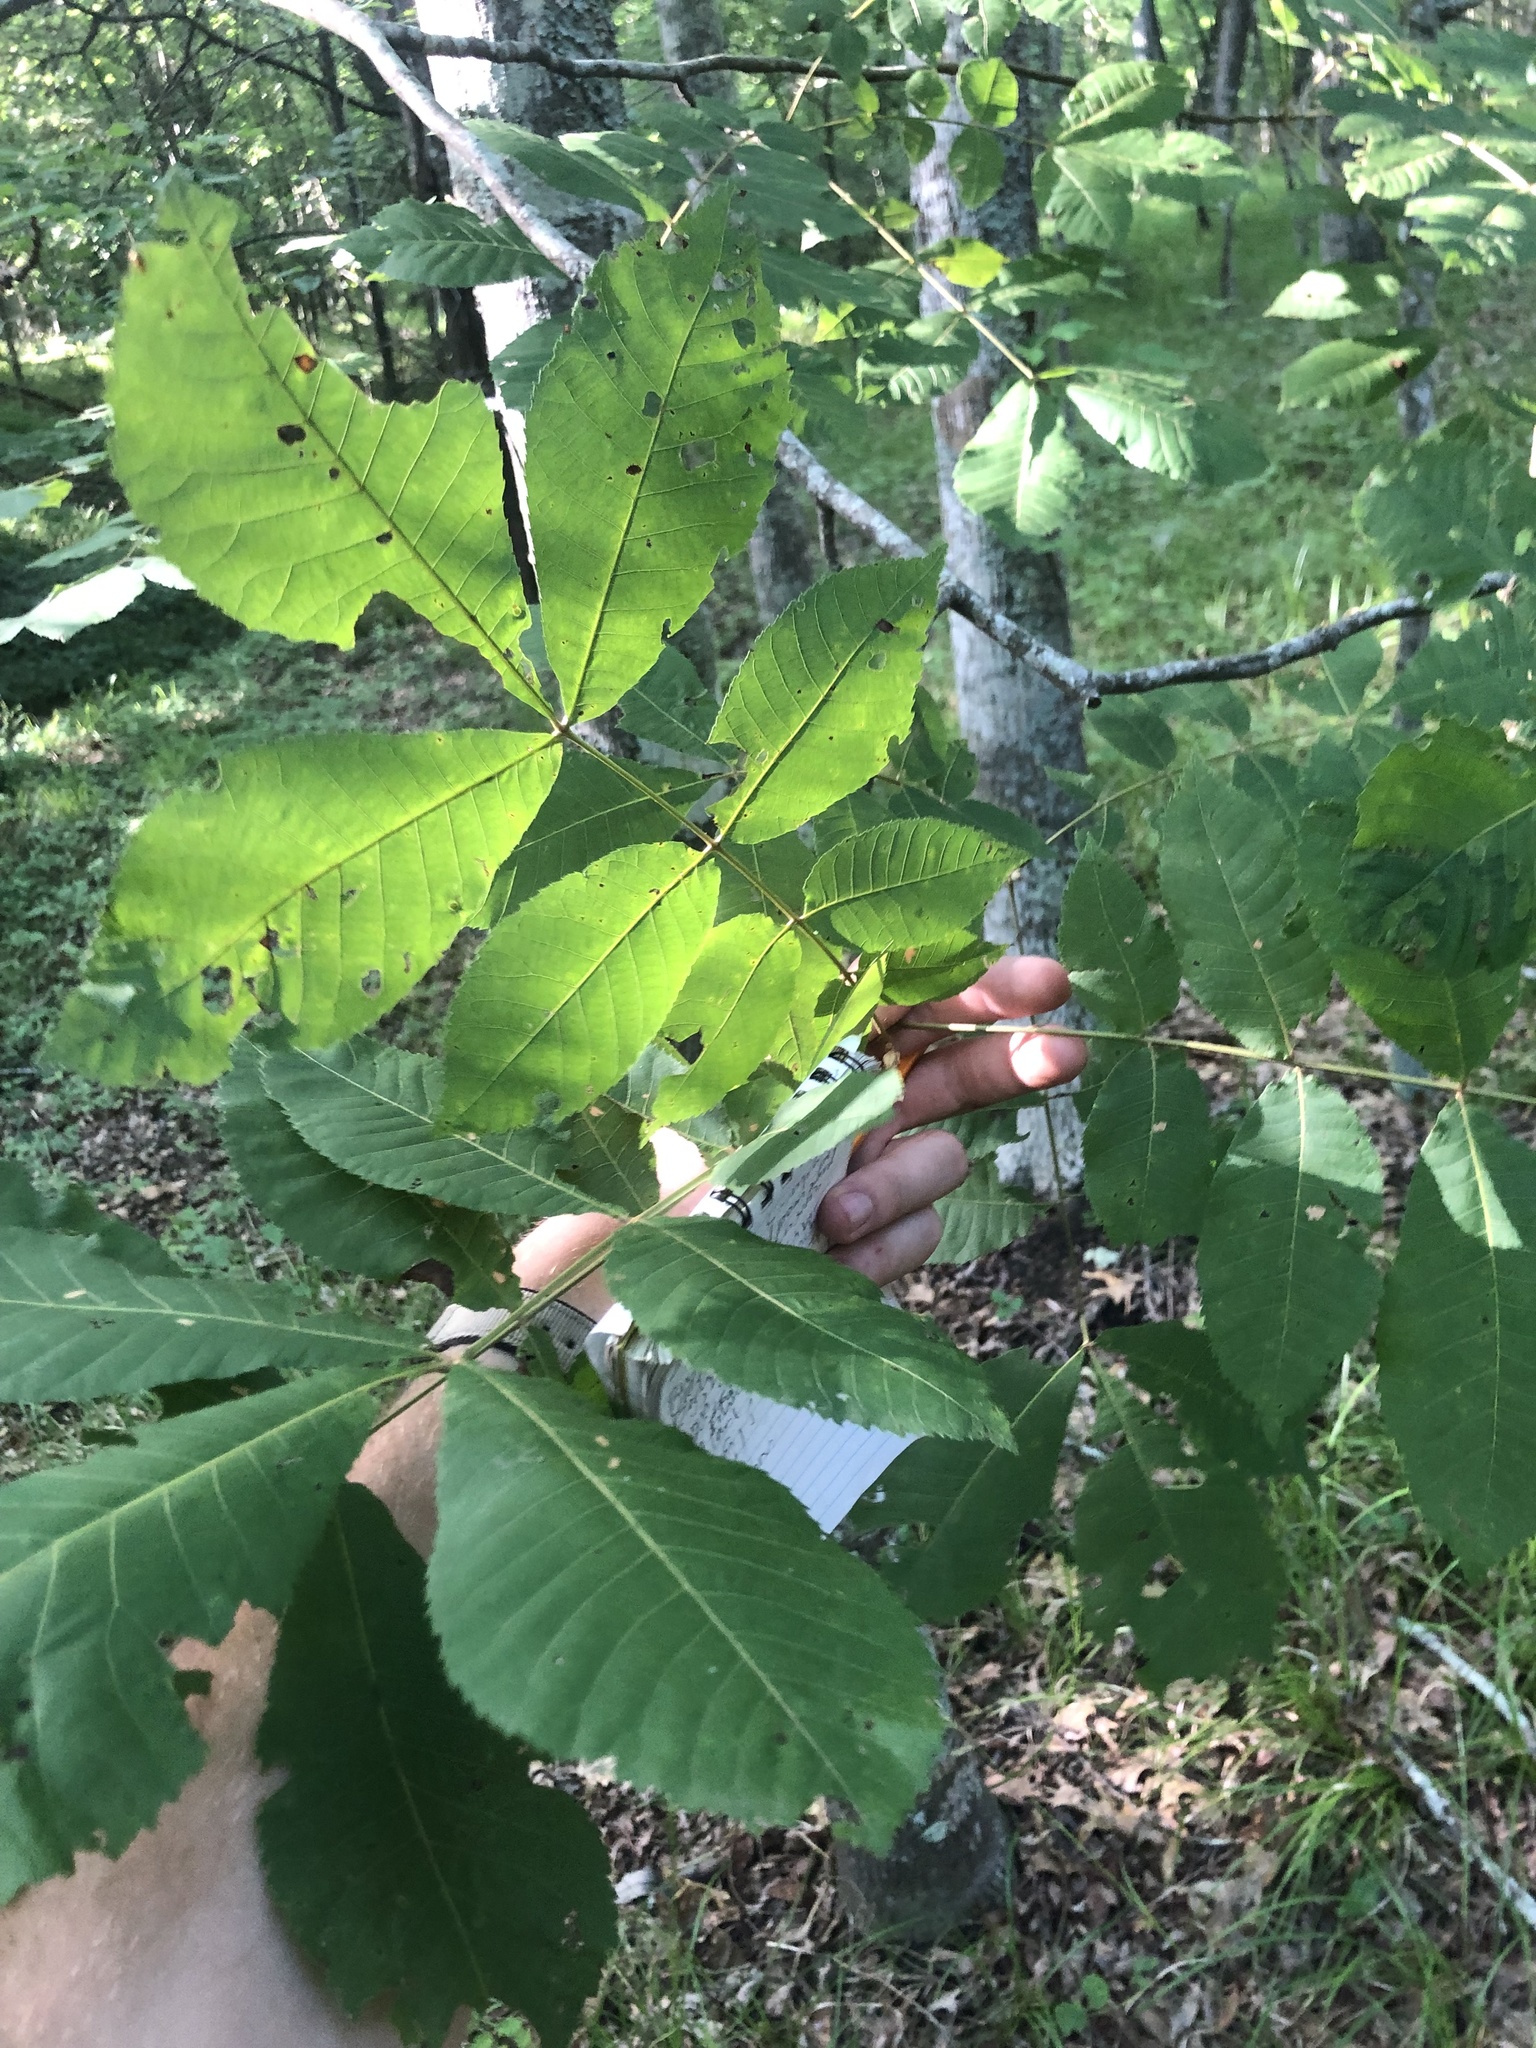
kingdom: Plantae
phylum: Tracheophyta
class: Magnoliopsida
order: Fagales
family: Juglandaceae
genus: Carya
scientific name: Carya myristiciformis
